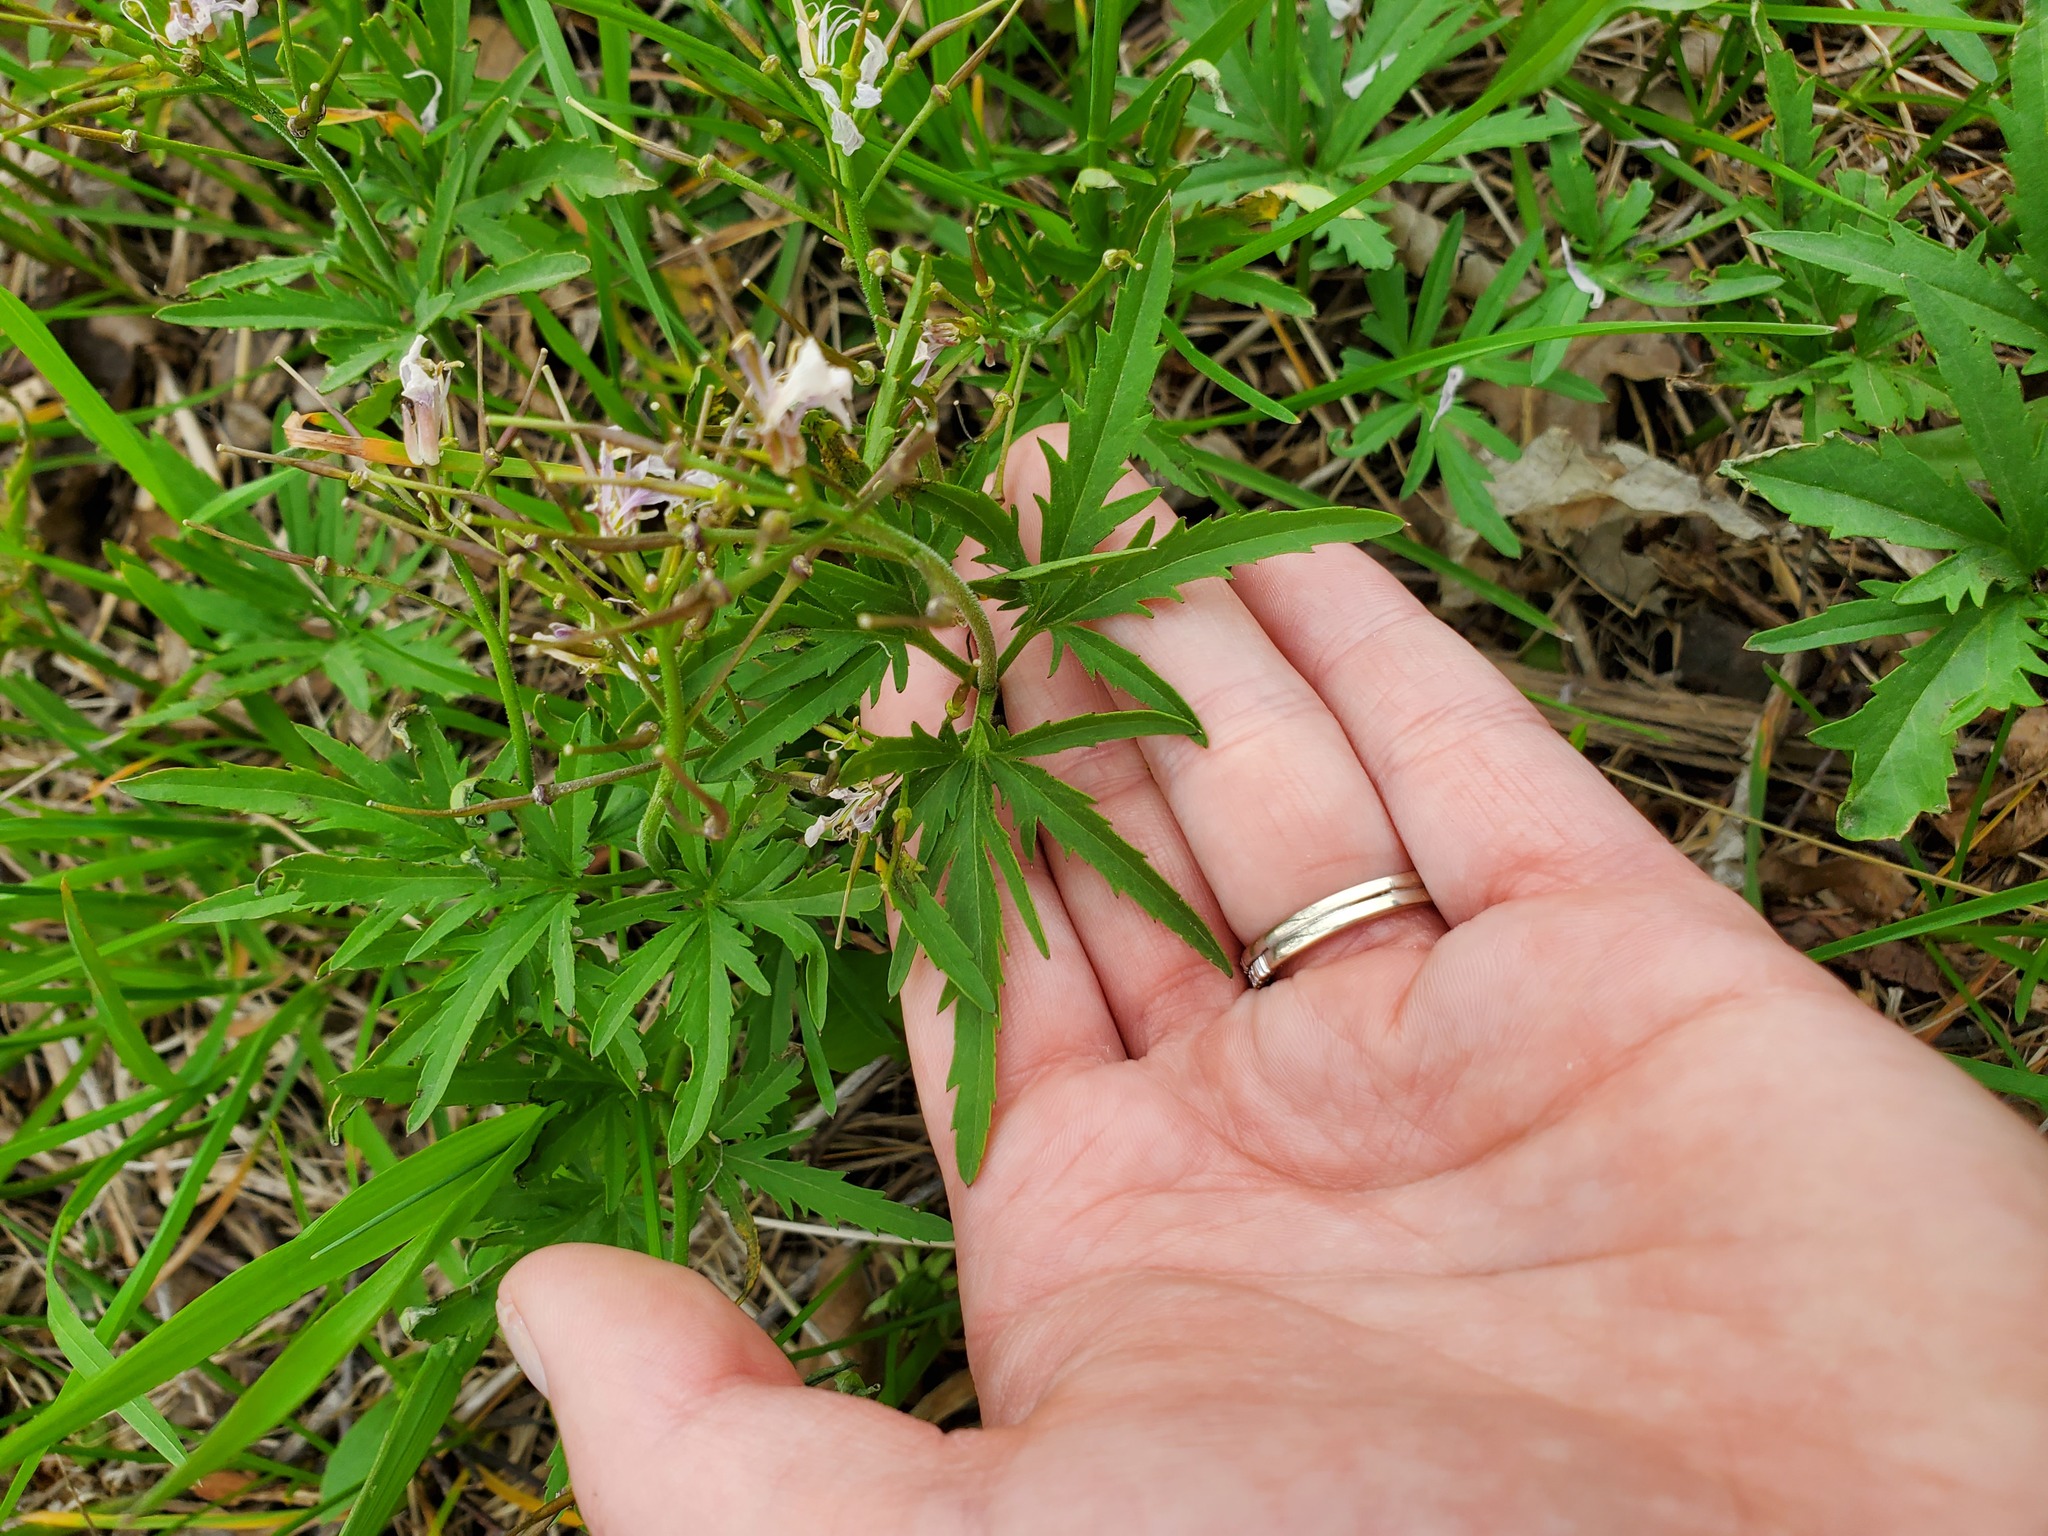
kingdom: Plantae
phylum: Tracheophyta
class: Magnoliopsida
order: Brassicales
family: Brassicaceae
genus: Cardamine
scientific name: Cardamine concatenata
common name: Cut-leaf toothcup
